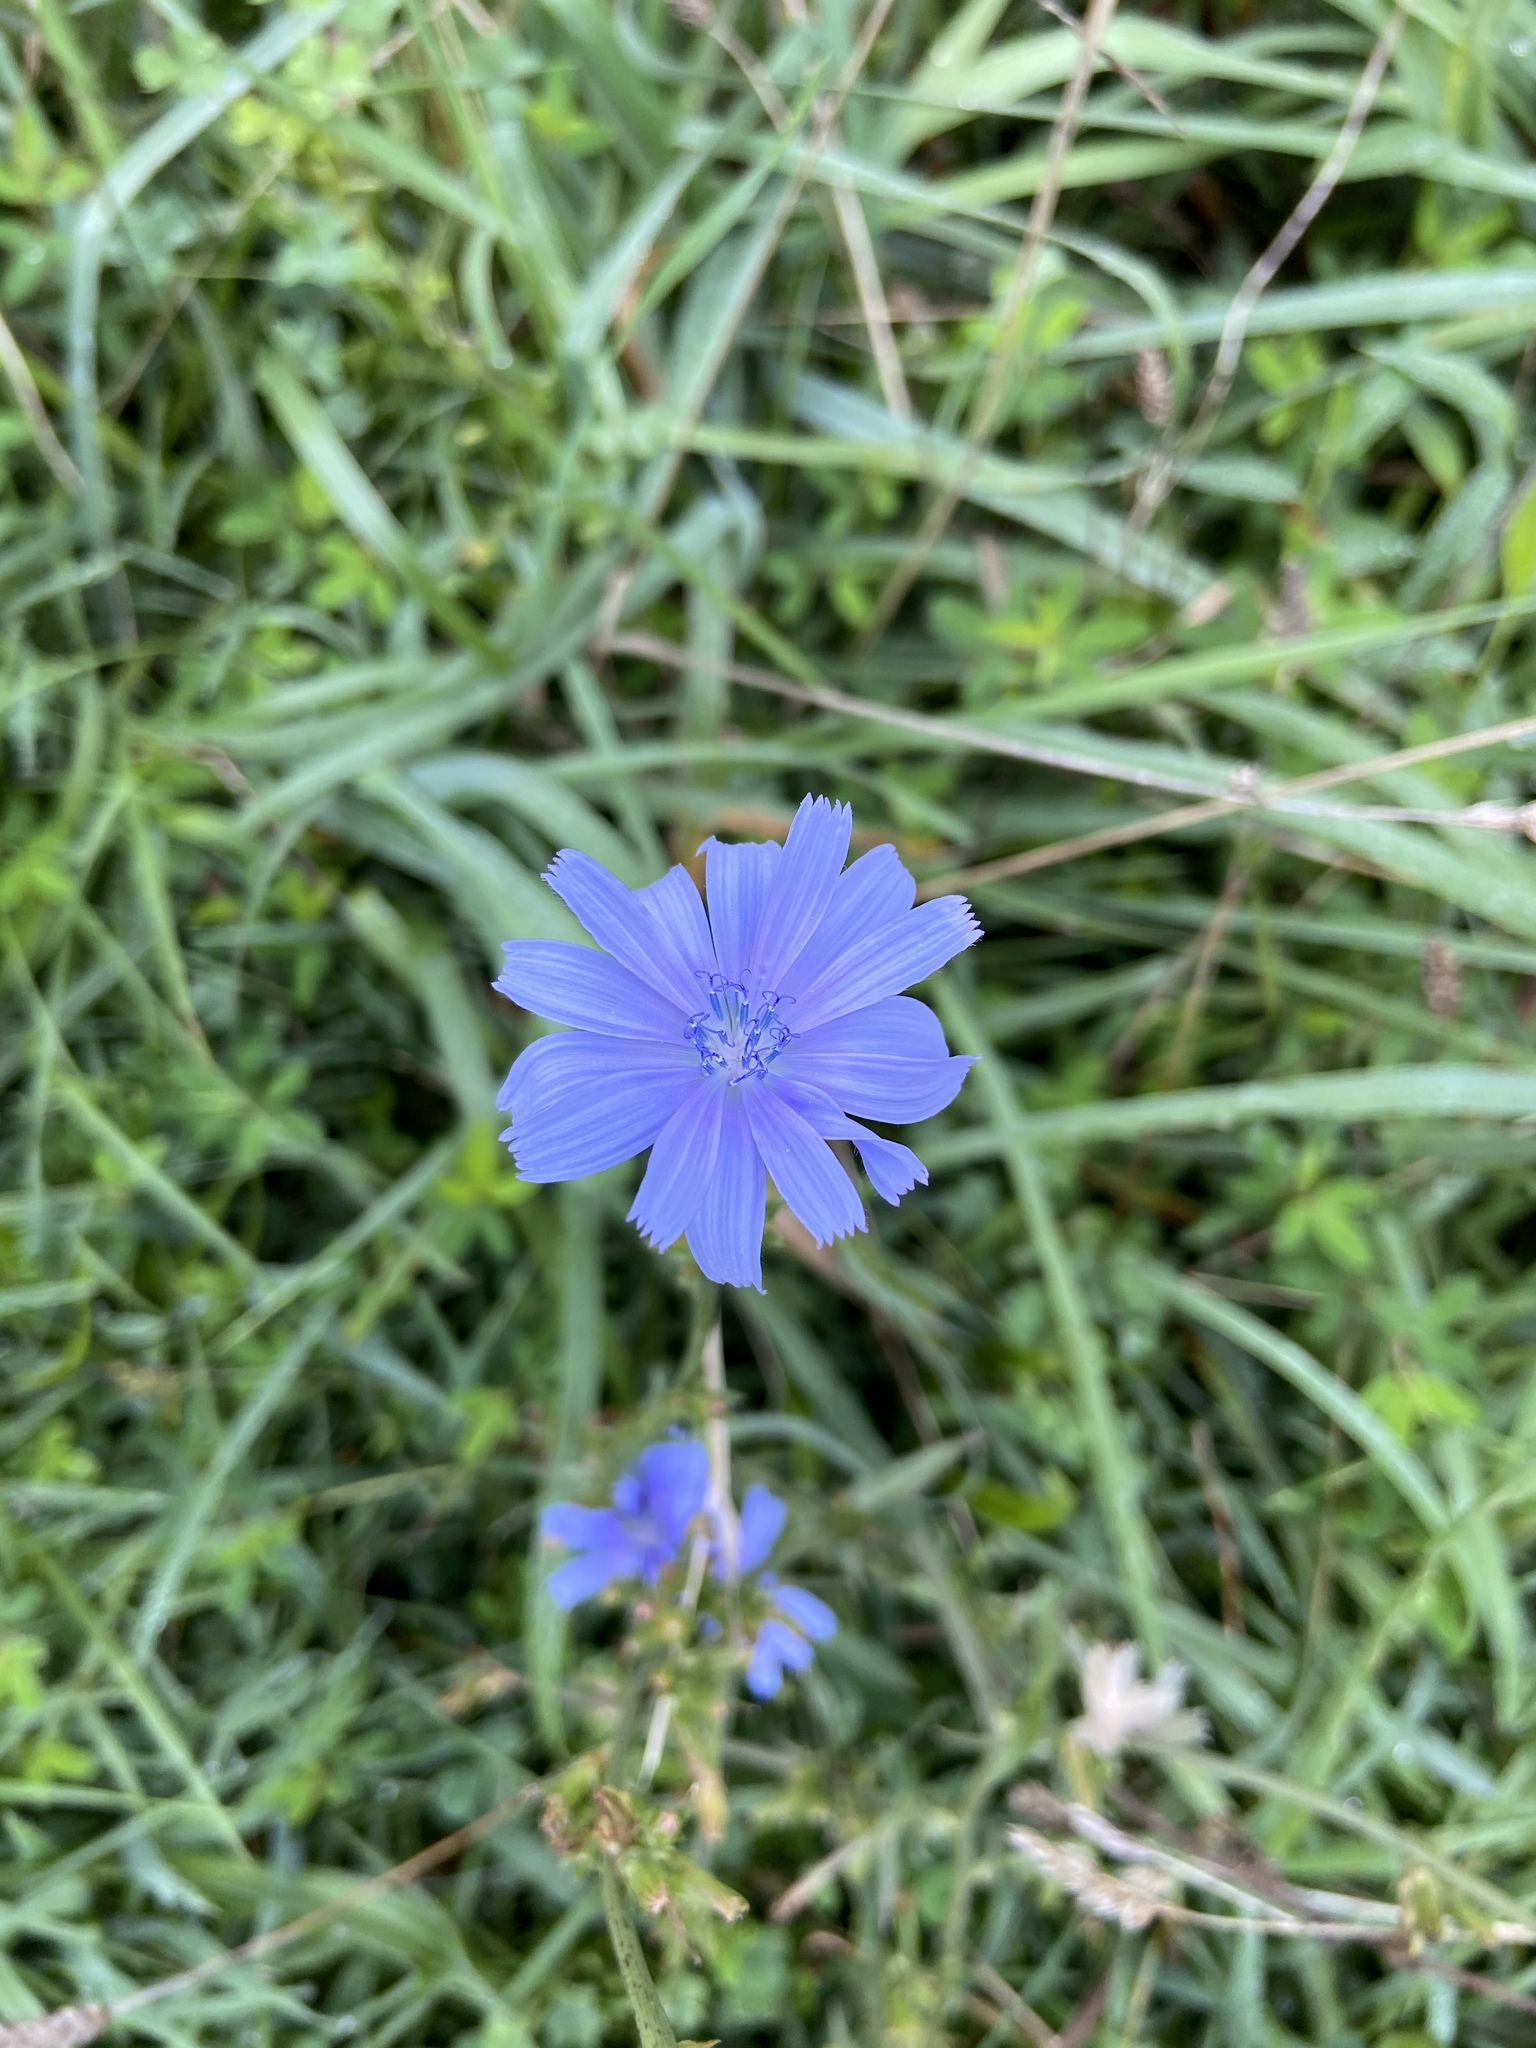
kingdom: Plantae
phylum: Tracheophyta
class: Magnoliopsida
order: Asterales
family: Asteraceae
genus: Cichorium
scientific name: Cichorium intybus
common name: Chicory
